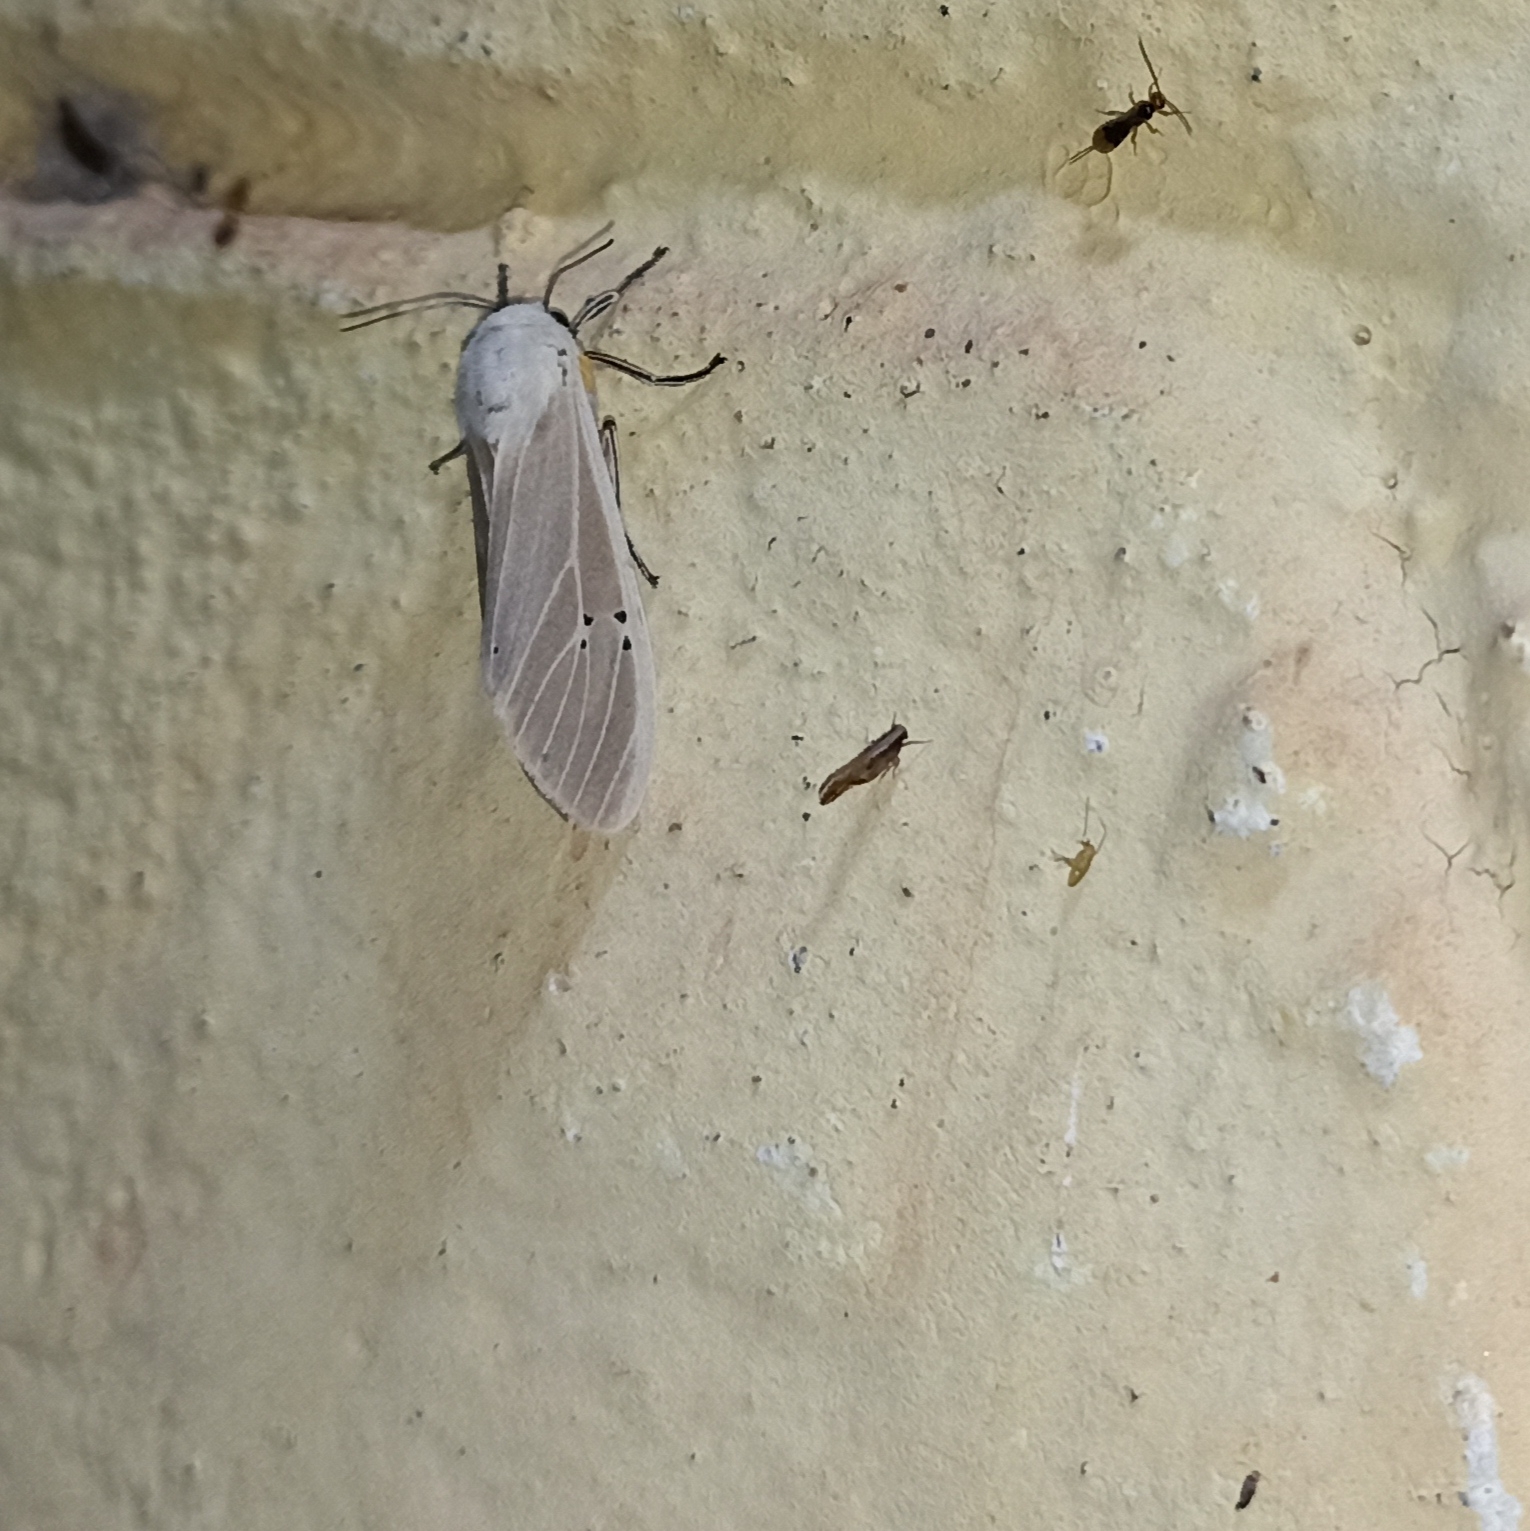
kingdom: Animalia
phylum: Arthropoda
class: Insecta
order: Lepidoptera
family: Erebidae
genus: Creatonotos
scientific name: Creatonotos transiens
